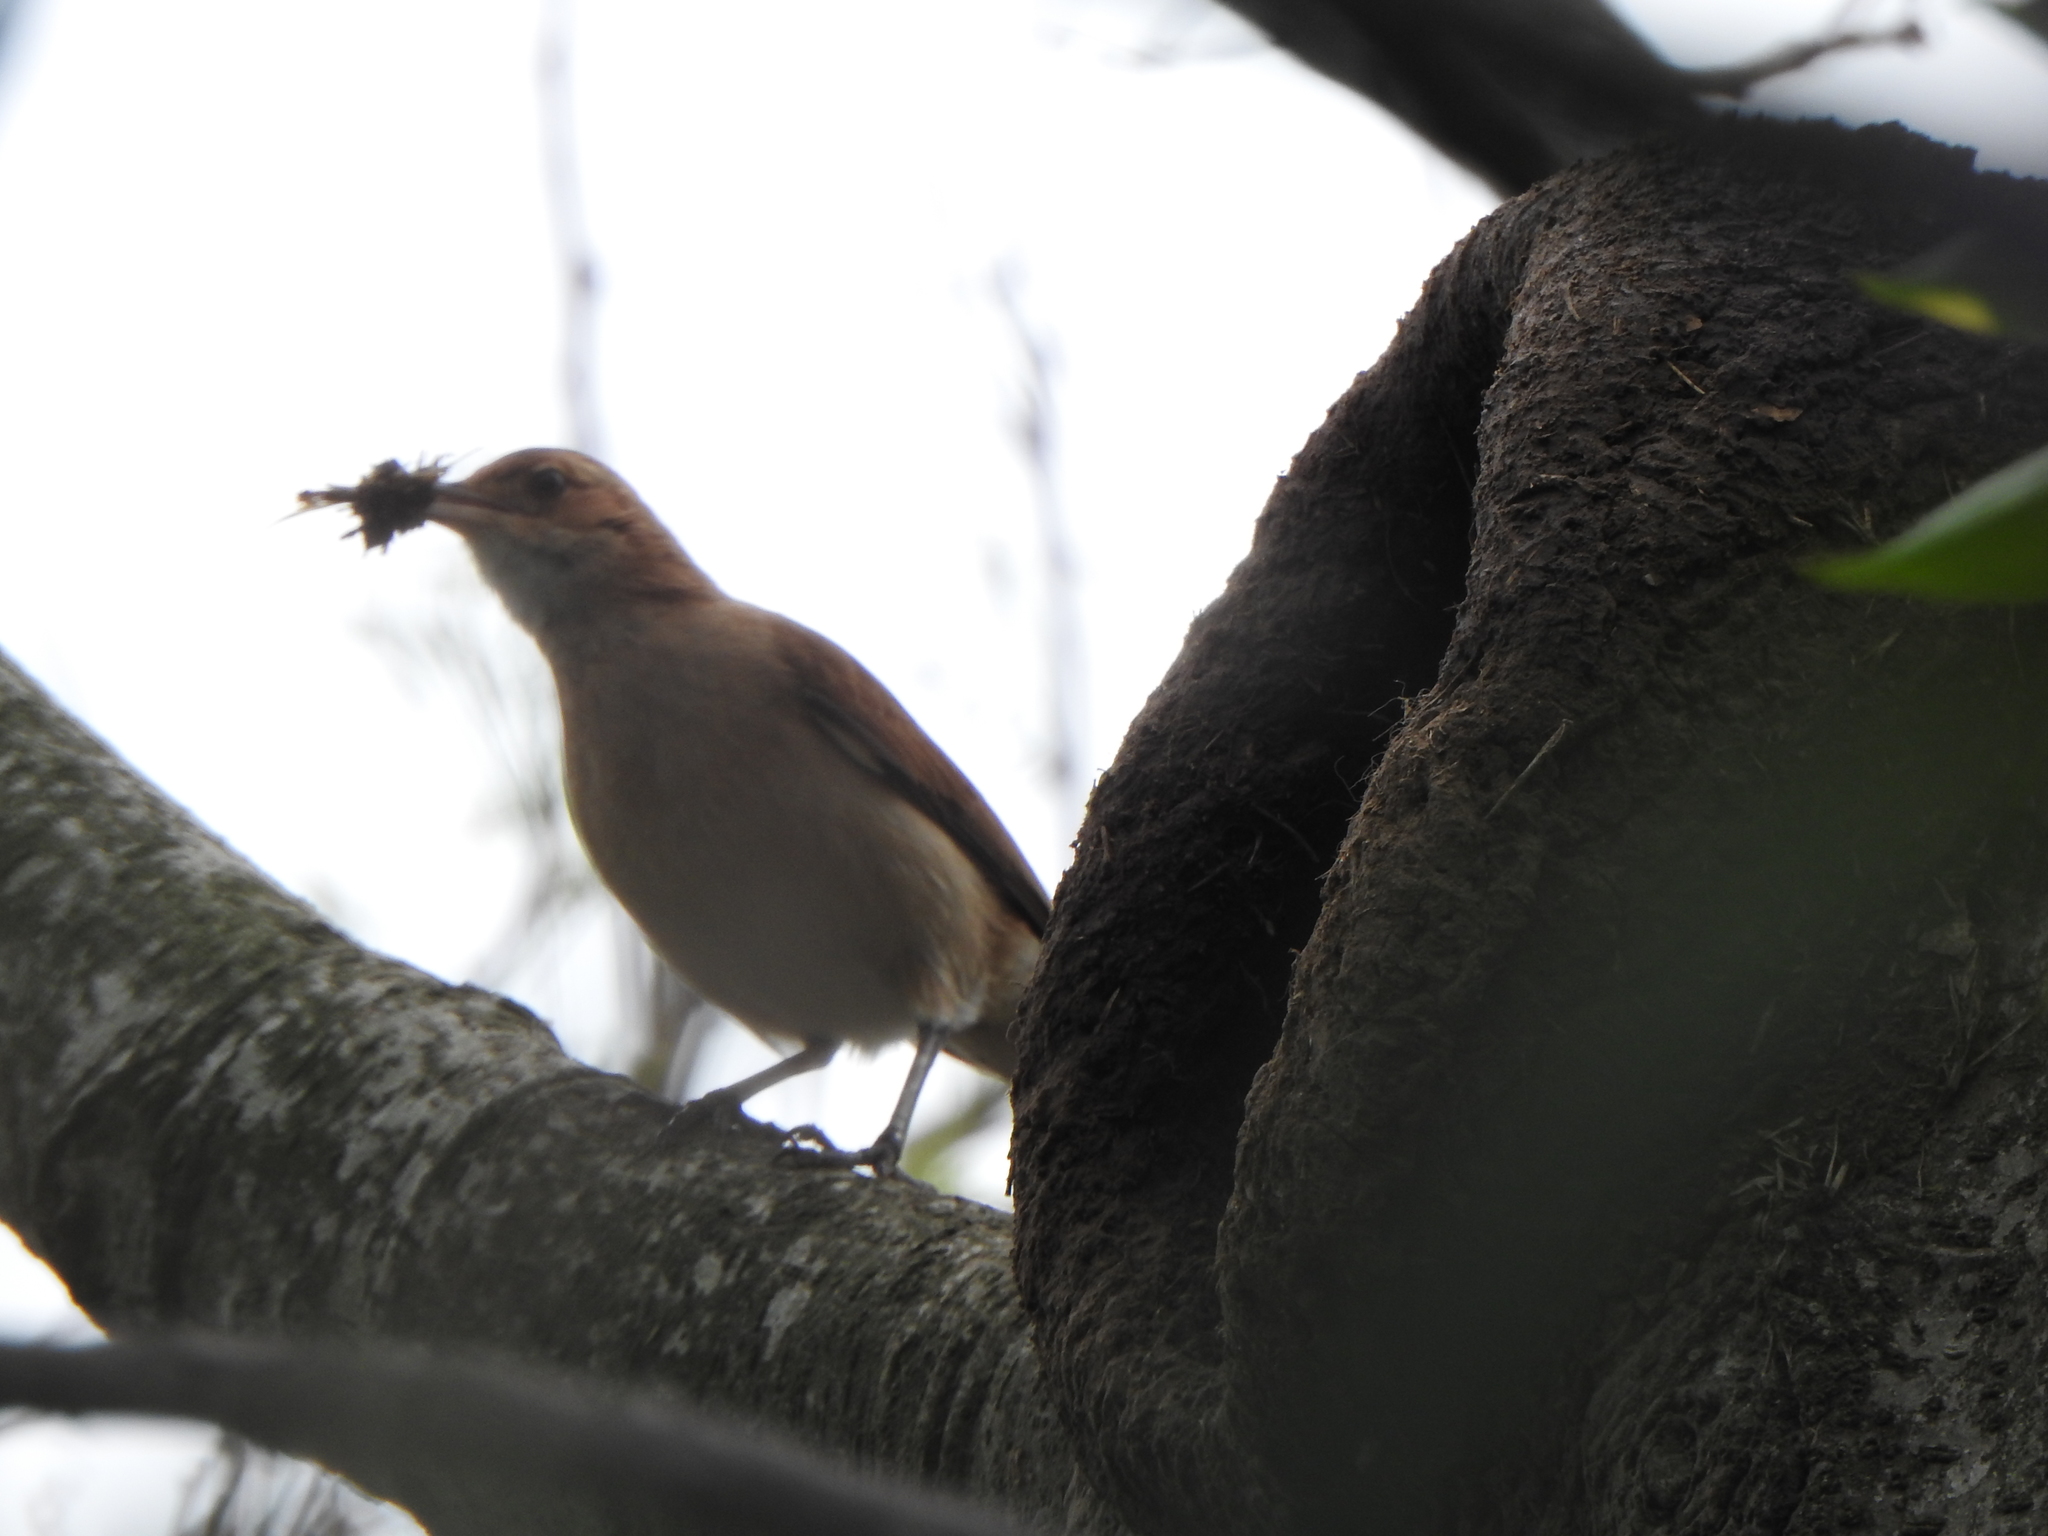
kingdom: Animalia
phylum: Chordata
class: Aves
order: Passeriformes
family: Furnariidae
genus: Furnarius
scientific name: Furnarius rufus
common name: Rufous hornero
